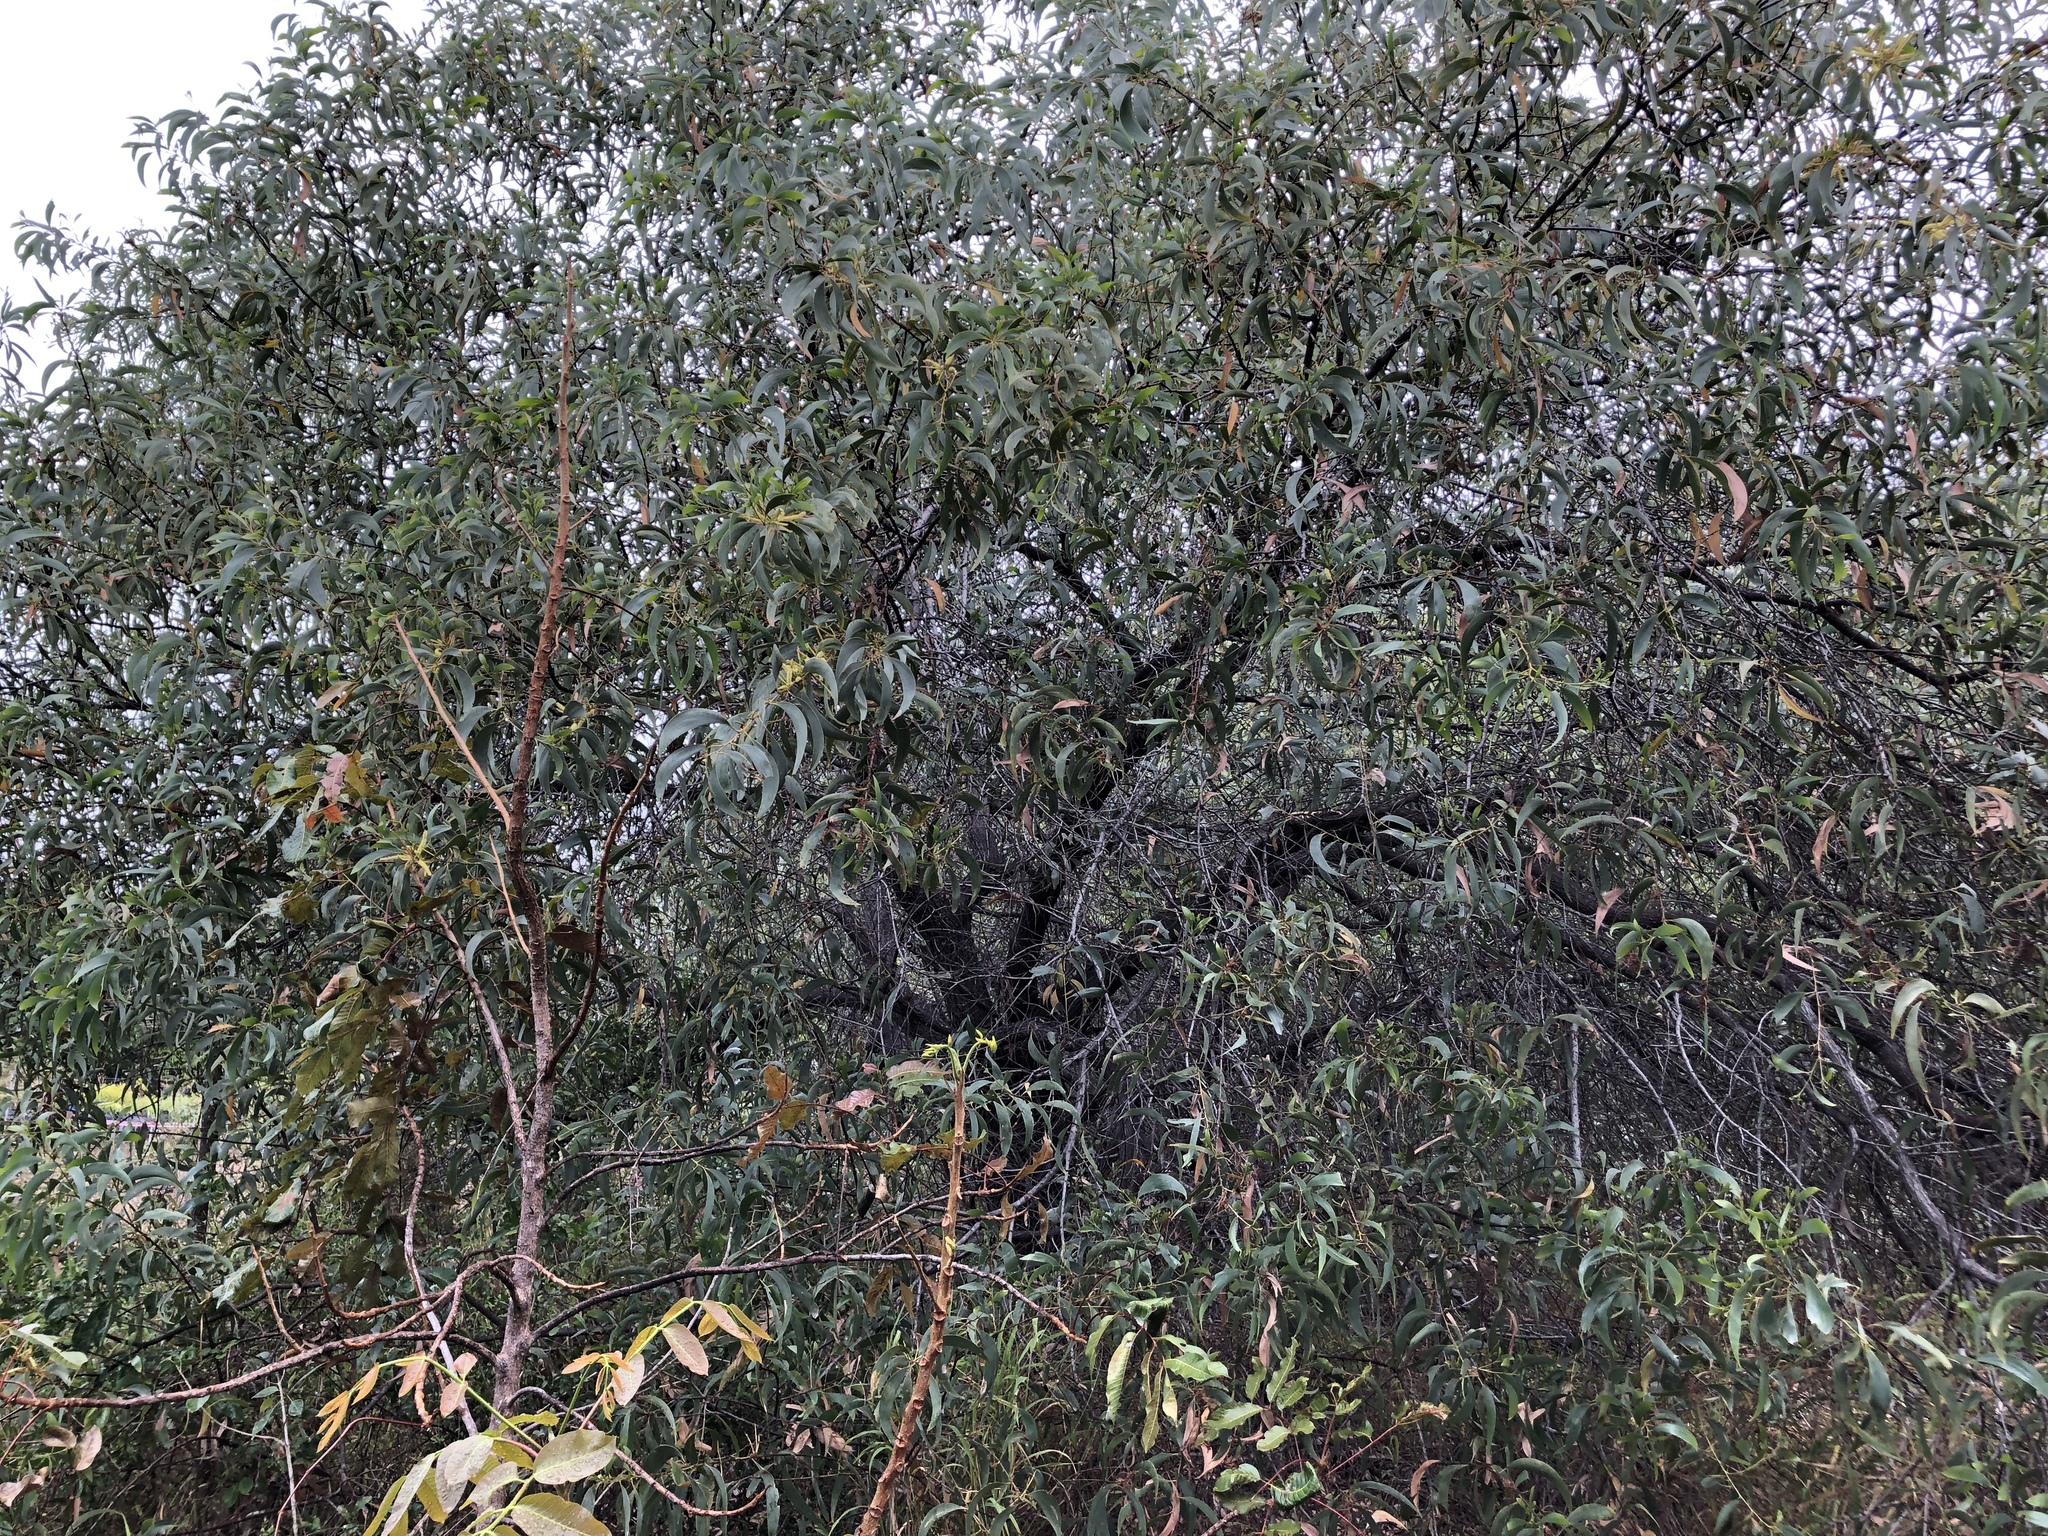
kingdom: Plantae
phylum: Tracheophyta
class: Magnoliopsida
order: Fabales
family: Fabaceae
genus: Acacia
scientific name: Acacia crassicarpa
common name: Northern wattle
